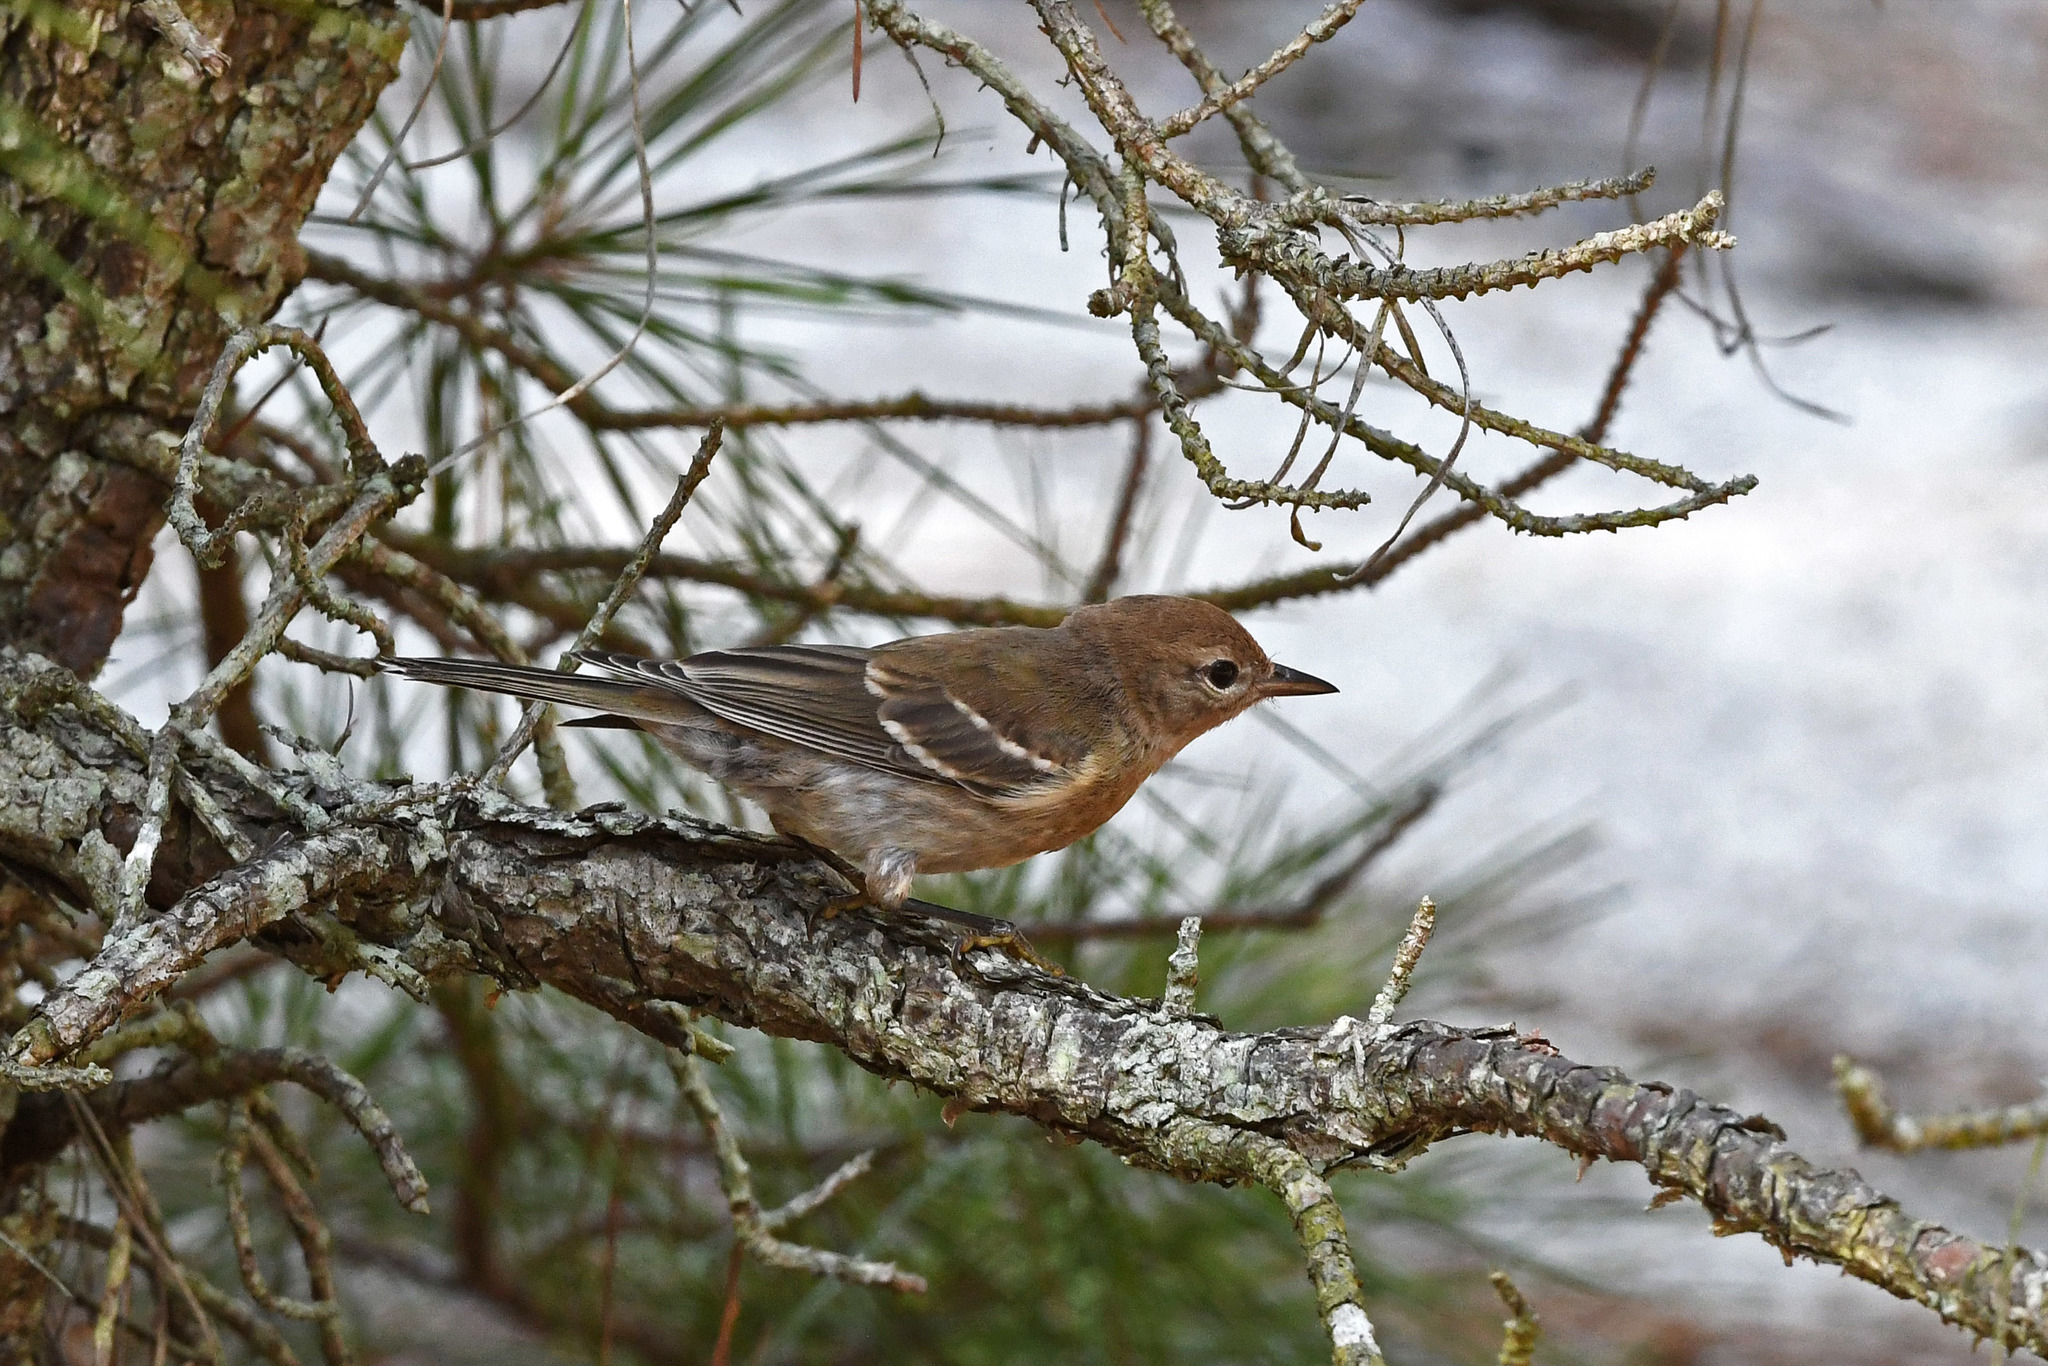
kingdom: Animalia
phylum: Chordata
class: Aves
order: Passeriformes
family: Parulidae
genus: Setophaga
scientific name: Setophaga pinus
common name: Pine warbler
